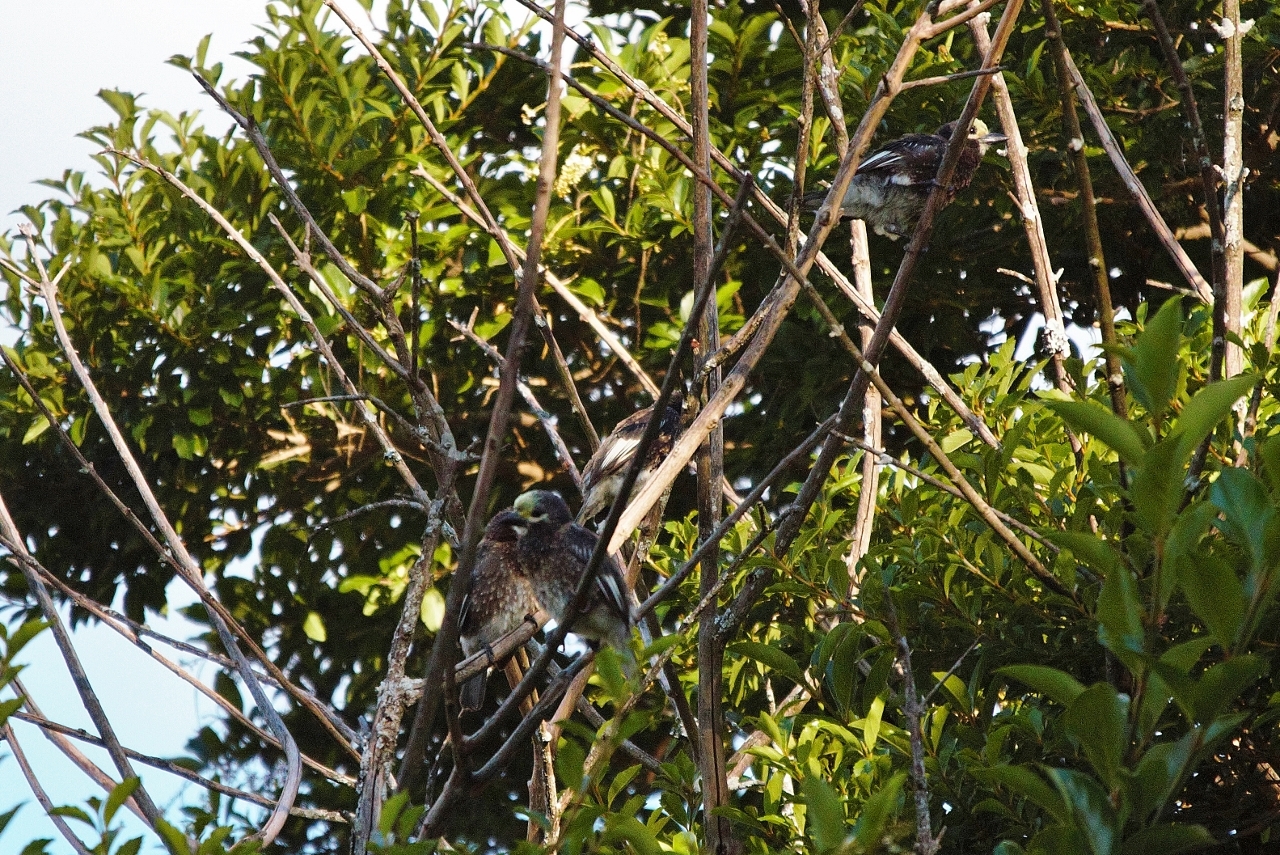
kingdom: Animalia
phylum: Chordata
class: Aves
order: Piciformes
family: Lybiidae
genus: Stactolaema
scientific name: Stactolaema whytii
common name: Whyte's barbet
